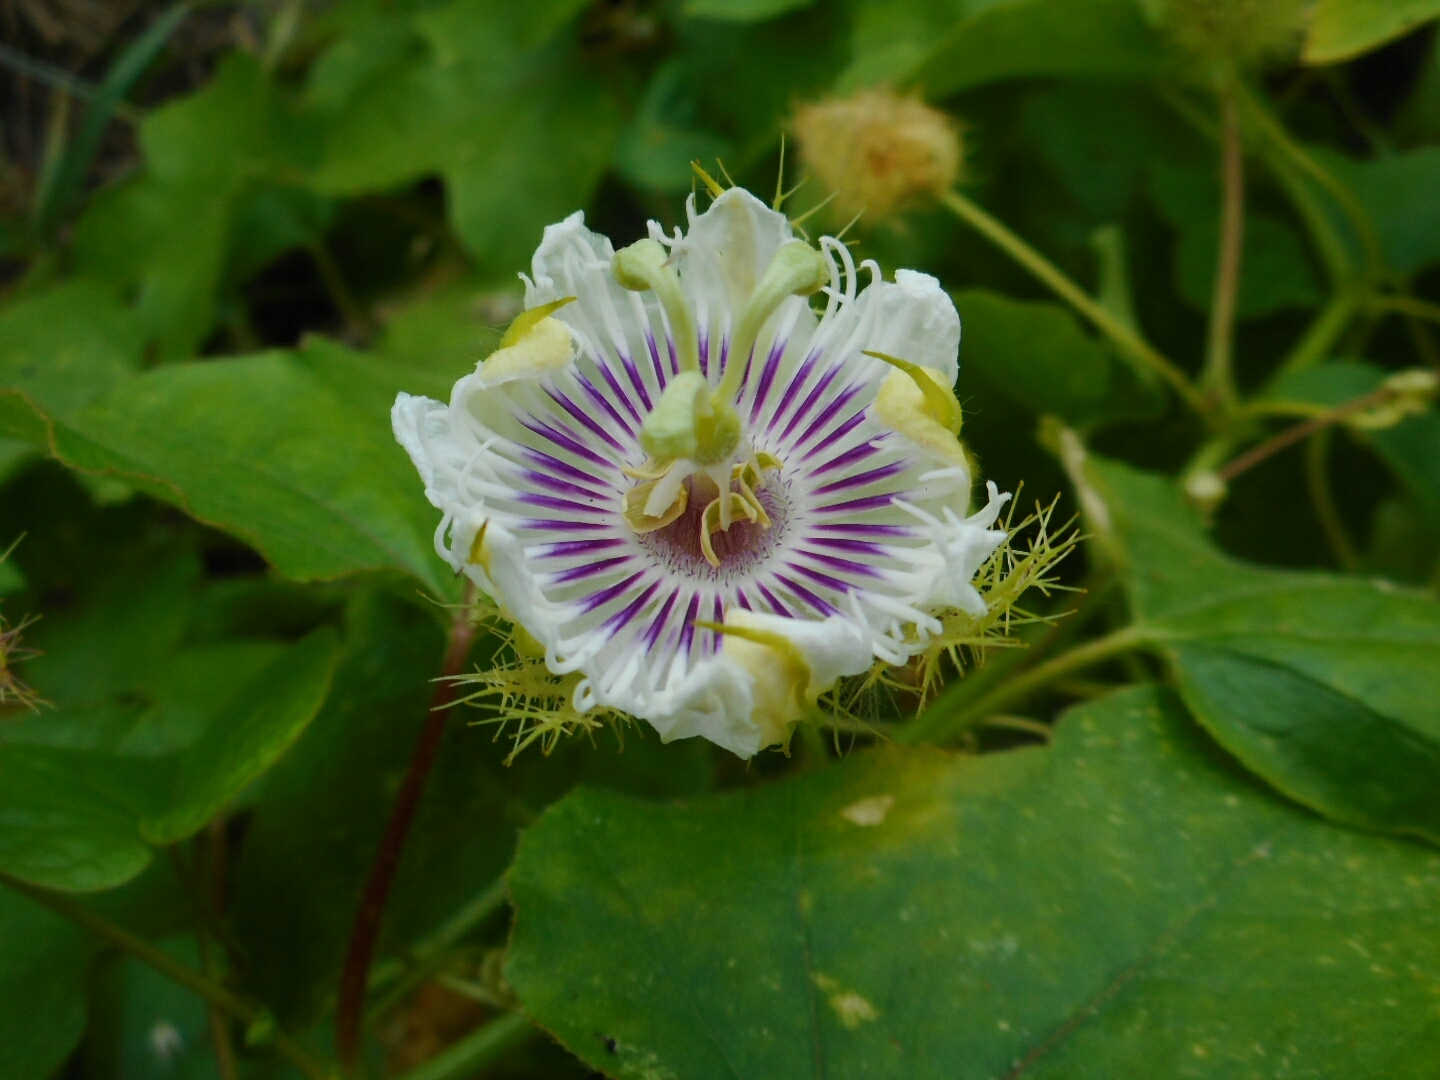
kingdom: Plantae
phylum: Tracheophyta
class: Magnoliopsida
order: Malpighiales
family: Passifloraceae
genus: Passiflora
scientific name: Passiflora vesicaria
